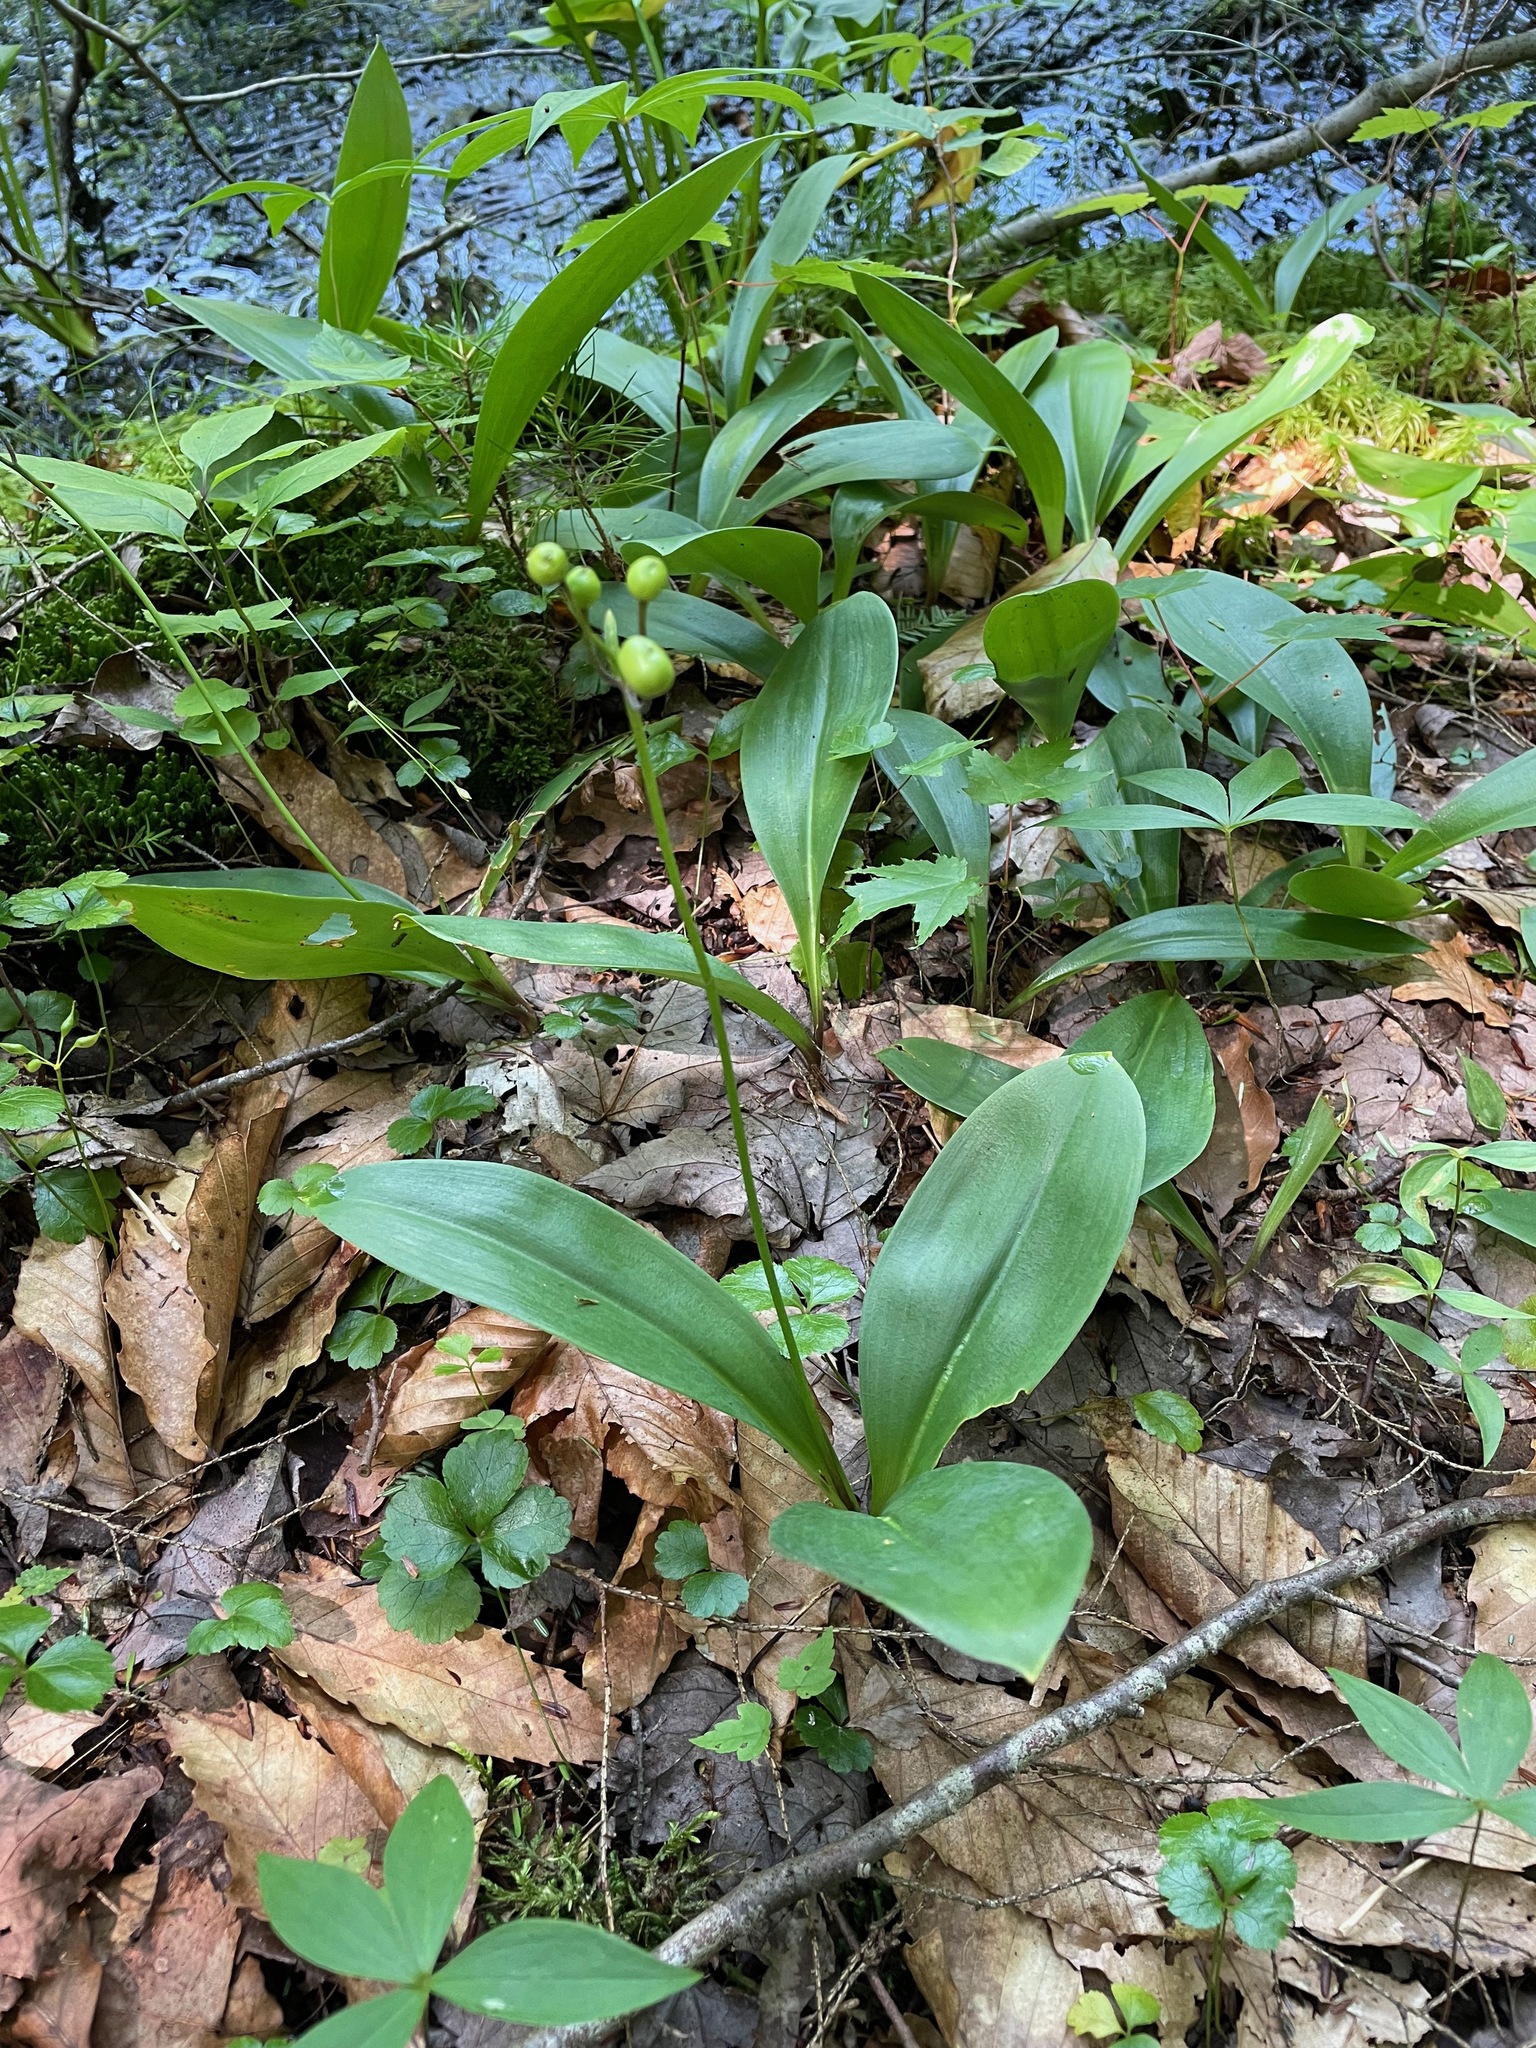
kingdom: Plantae
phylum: Tracheophyta
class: Liliopsida
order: Liliales
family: Liliaceae
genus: Clintonia
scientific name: Clintonia borealis
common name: Yellow clintonia
